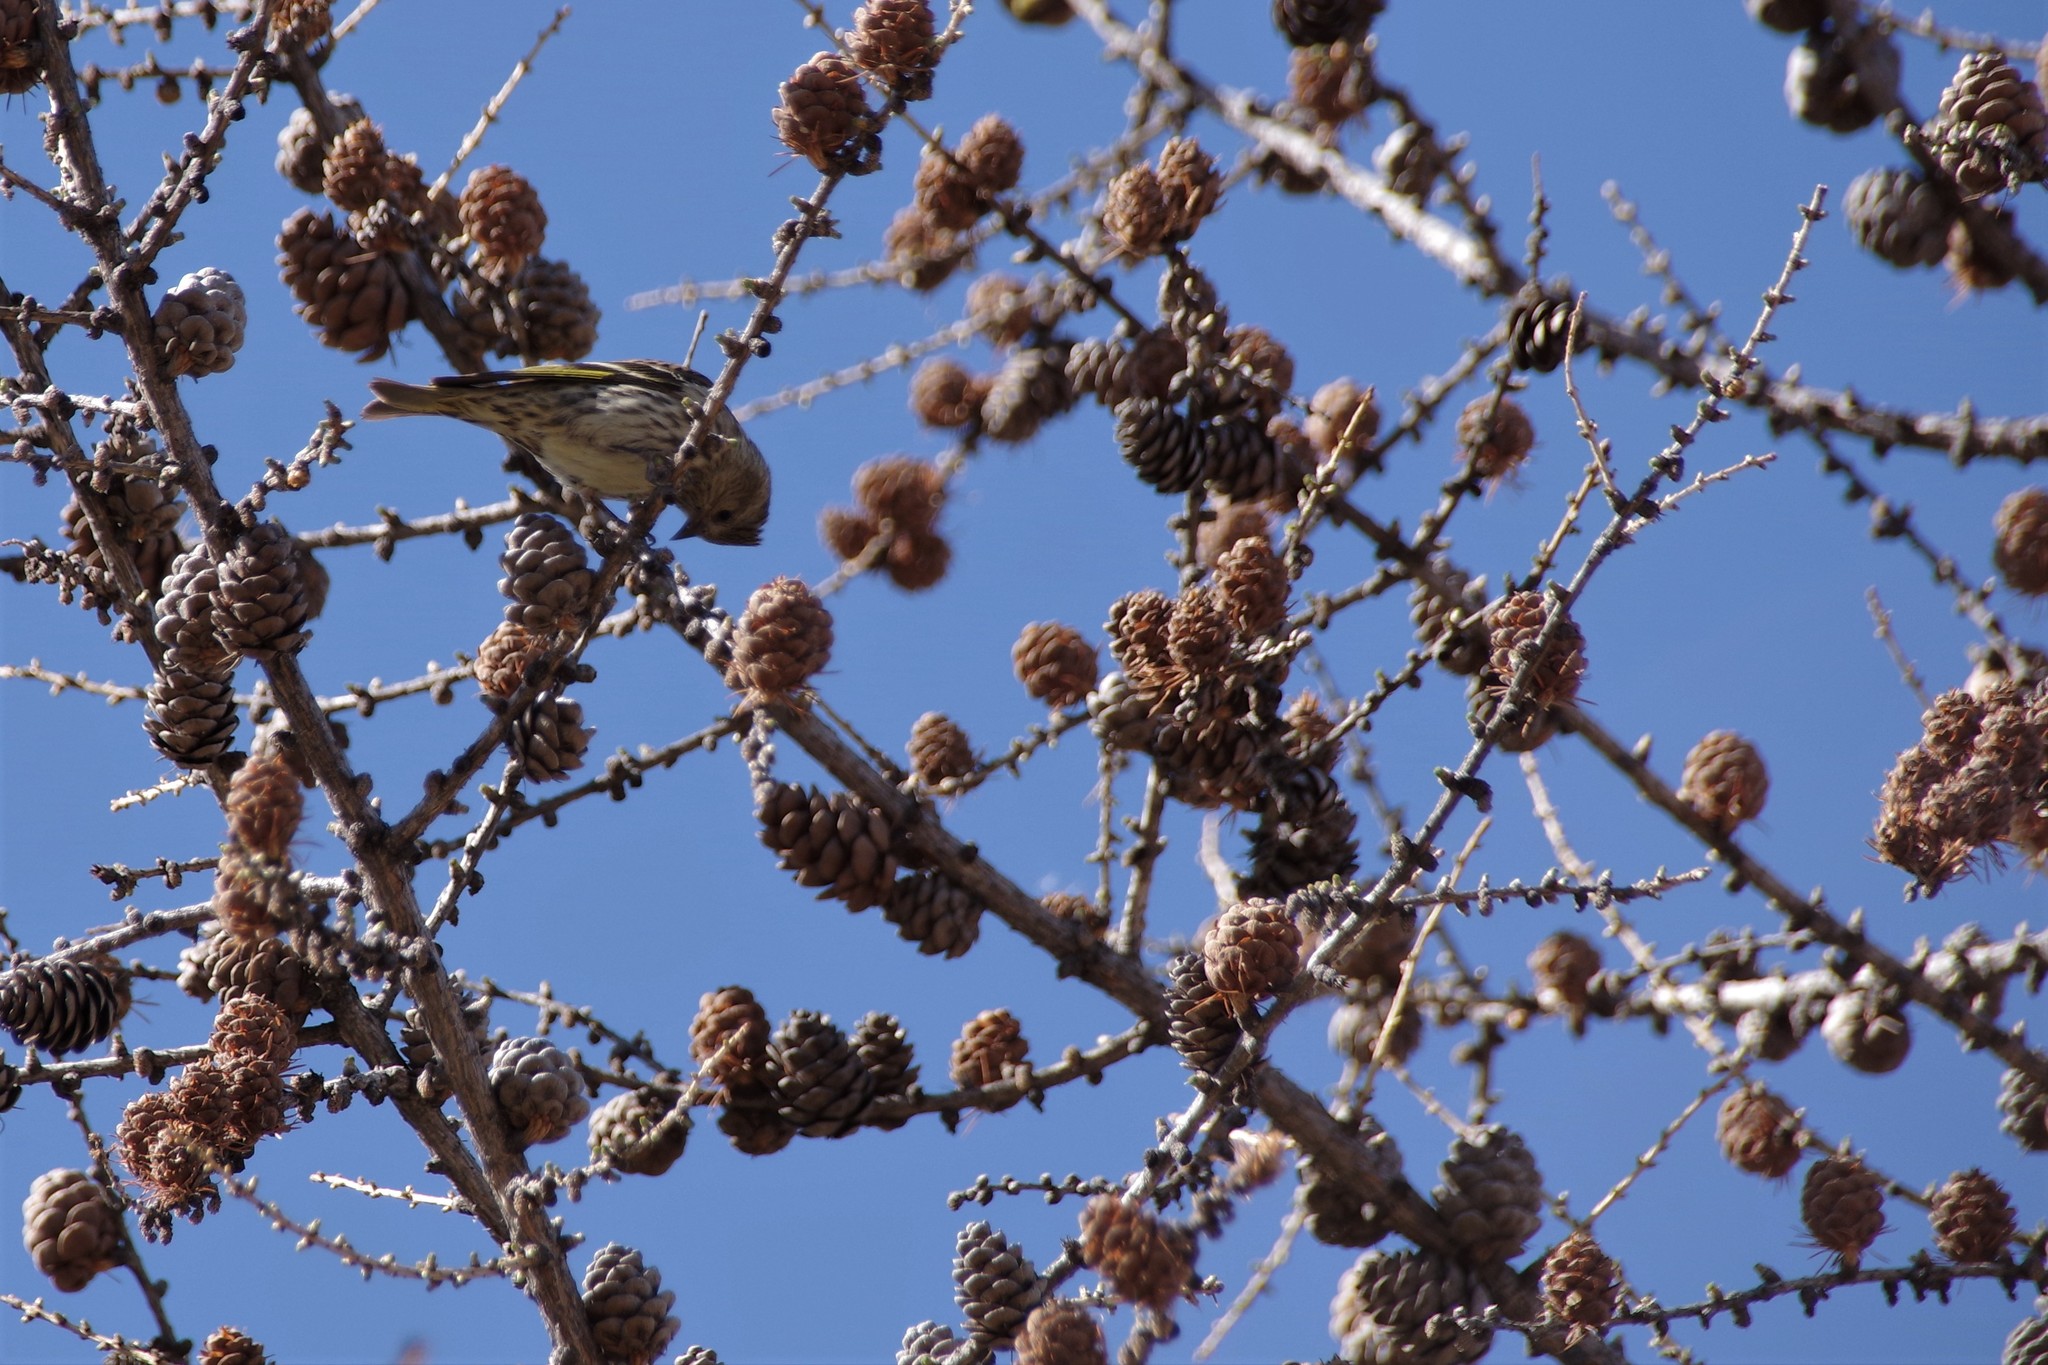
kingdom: Animalia
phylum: Chordata
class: Aves
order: Passeriformes
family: Fringillidae
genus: Spinus
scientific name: Spinus pinus
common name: Pine siskin
